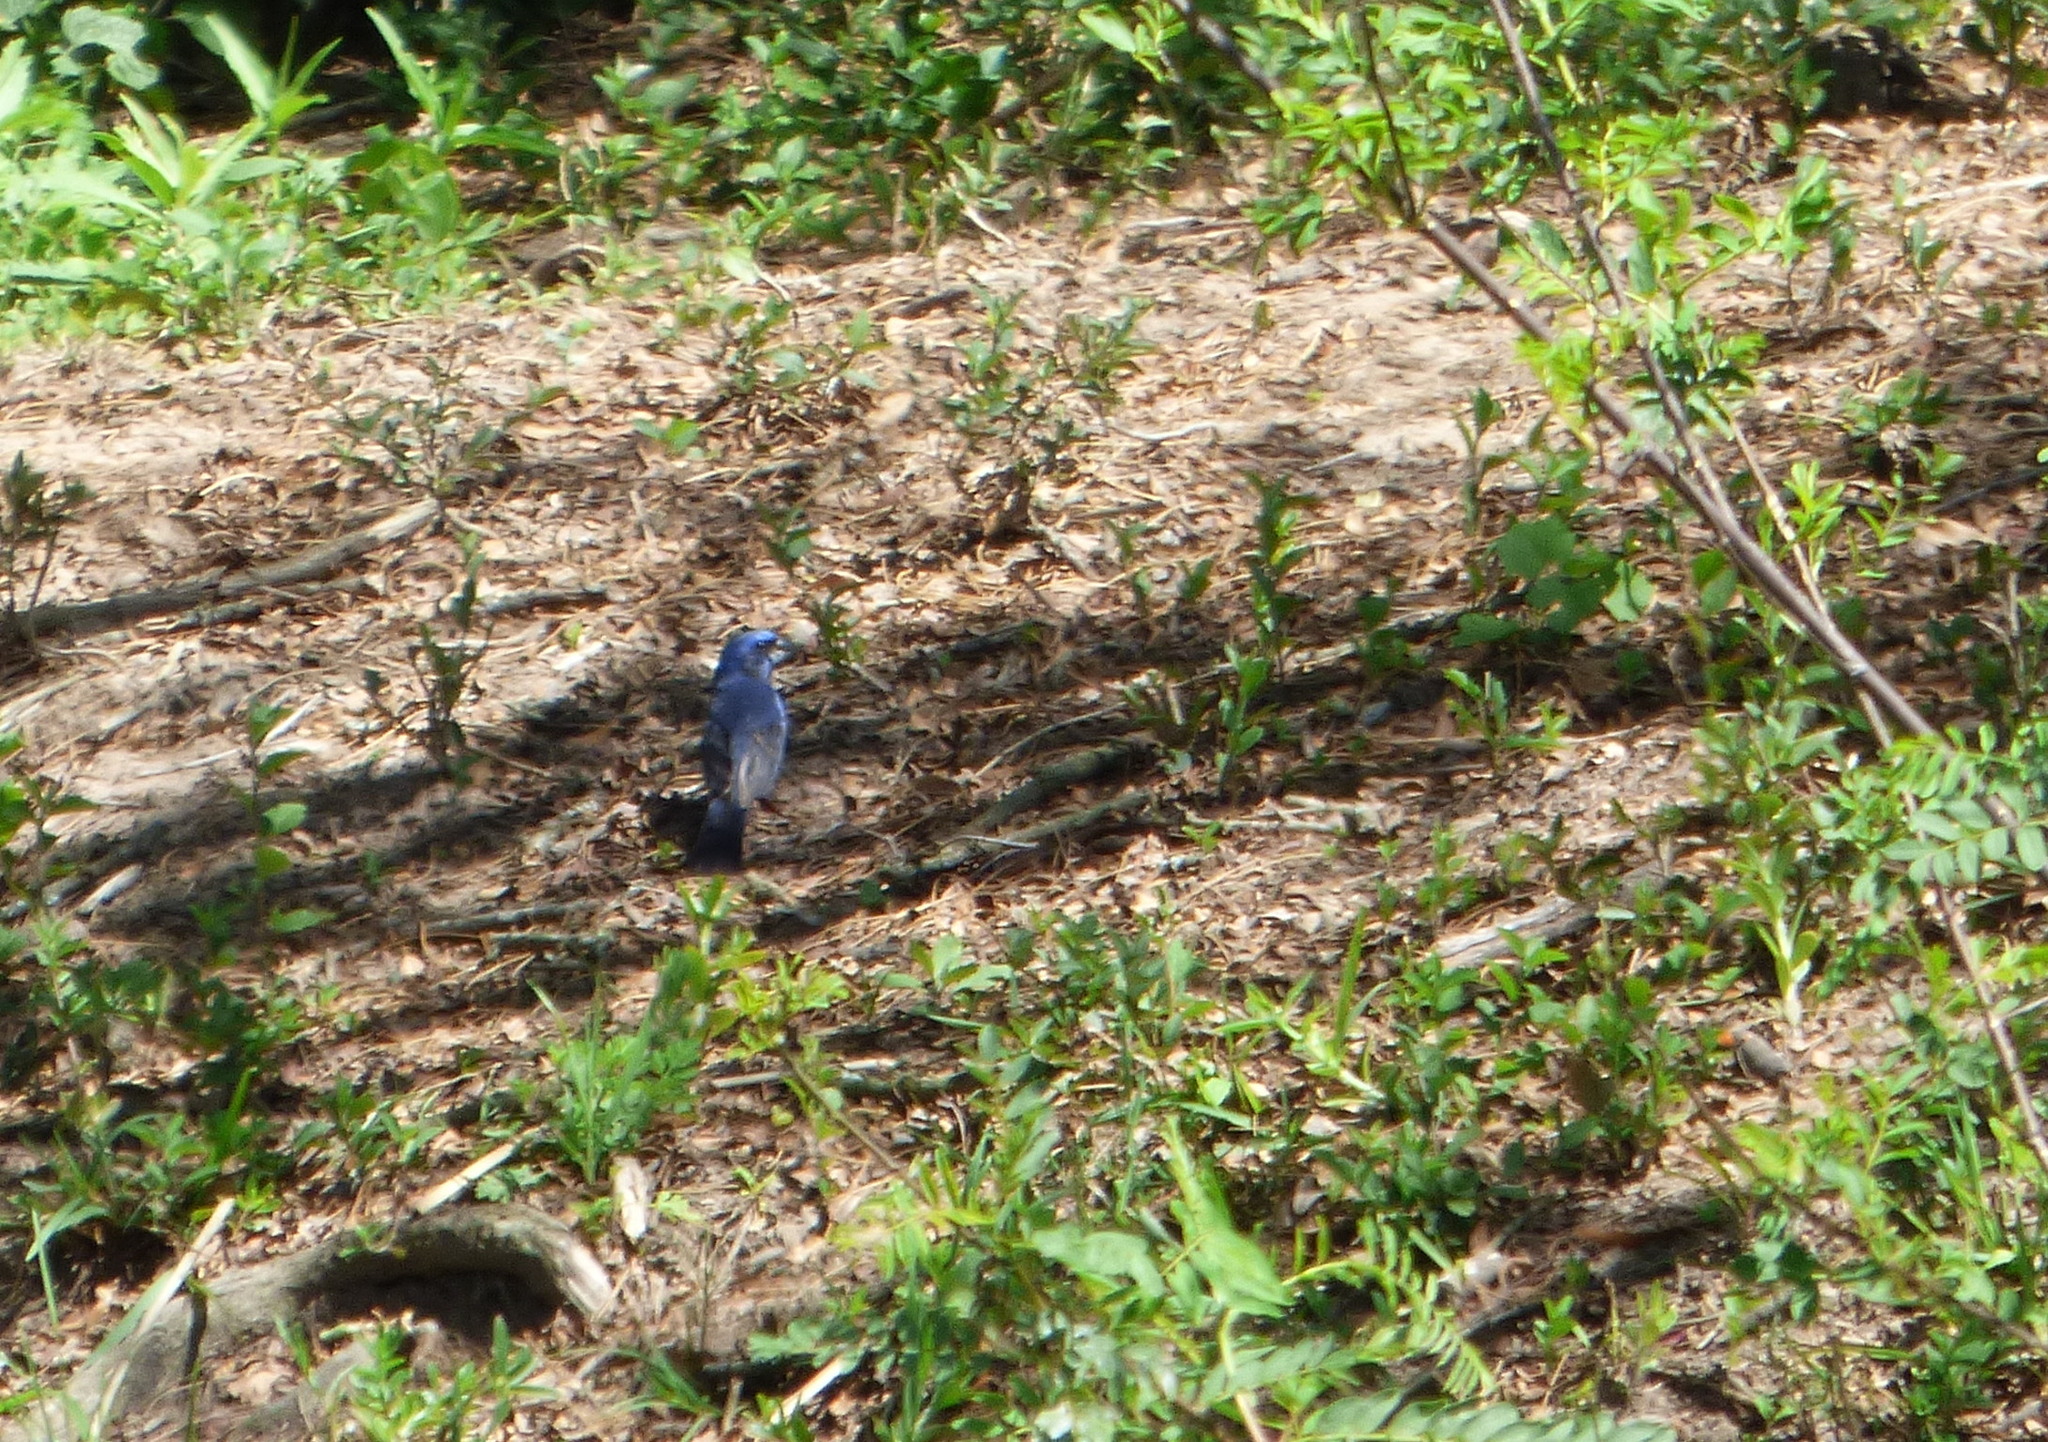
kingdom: Animalia
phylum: Chordata
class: Aves
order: Passeriformes
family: Cardinalidae
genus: Cyanoloxia
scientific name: Cyanoloxia brissonii
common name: Ultramarine grosbeak
